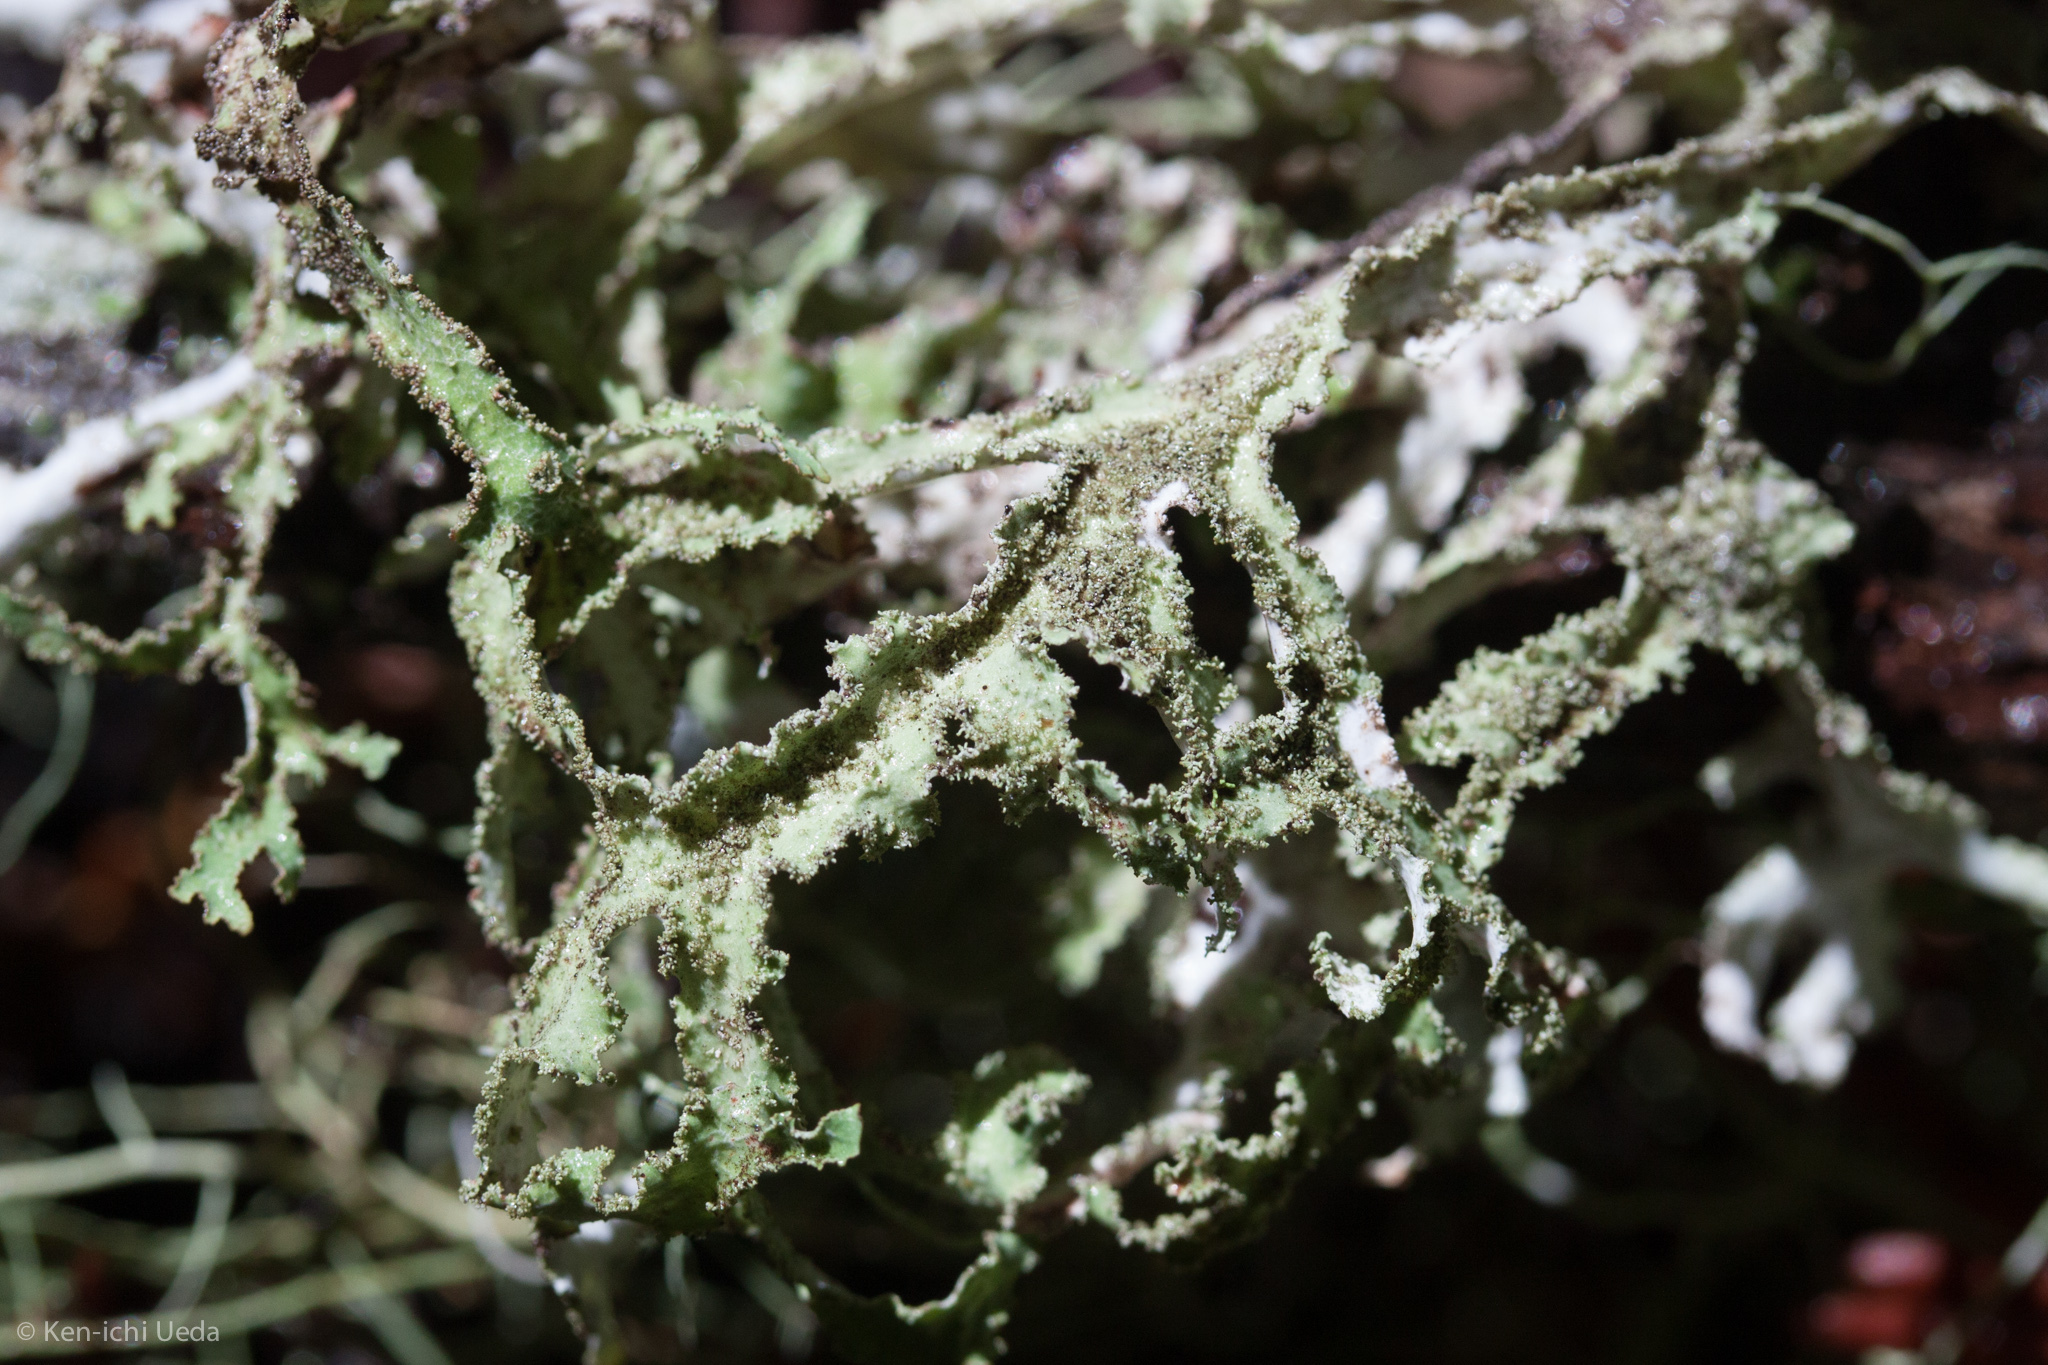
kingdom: Fungi
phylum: Ascomycota
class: Lecanoromycetes
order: Lecanorales
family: Parmeliaceae
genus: Platismatia
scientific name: Platismatia herrei
